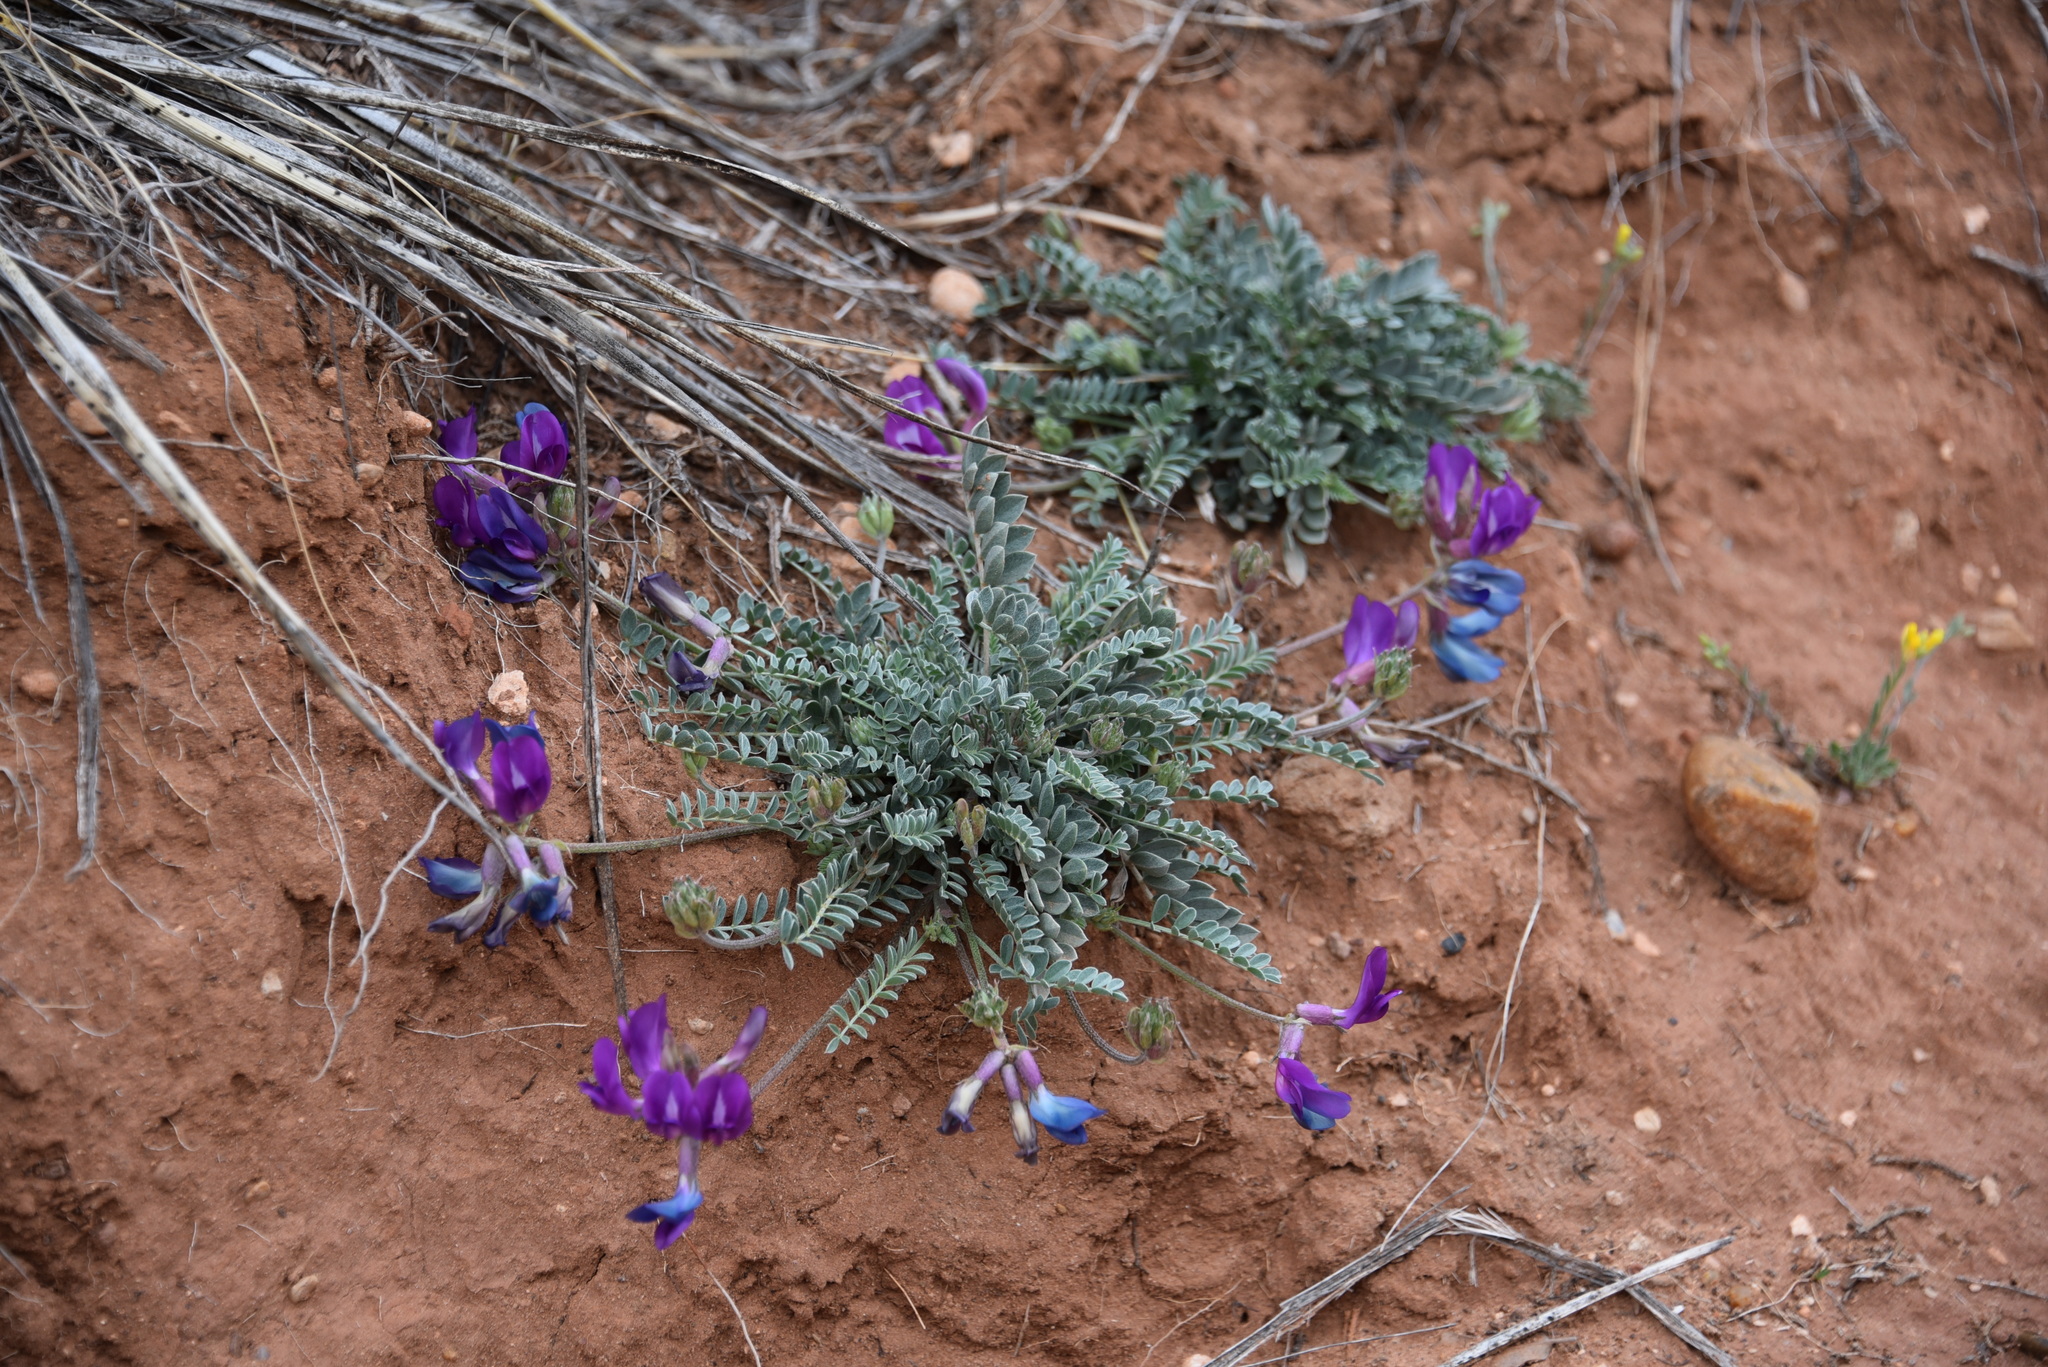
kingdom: Plantae
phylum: Tracheophyta
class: Magnoliopsida
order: Fabales
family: Fabaceae
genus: Astragalus
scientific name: Astragalus missouriensis
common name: Missouri milk-vetch
